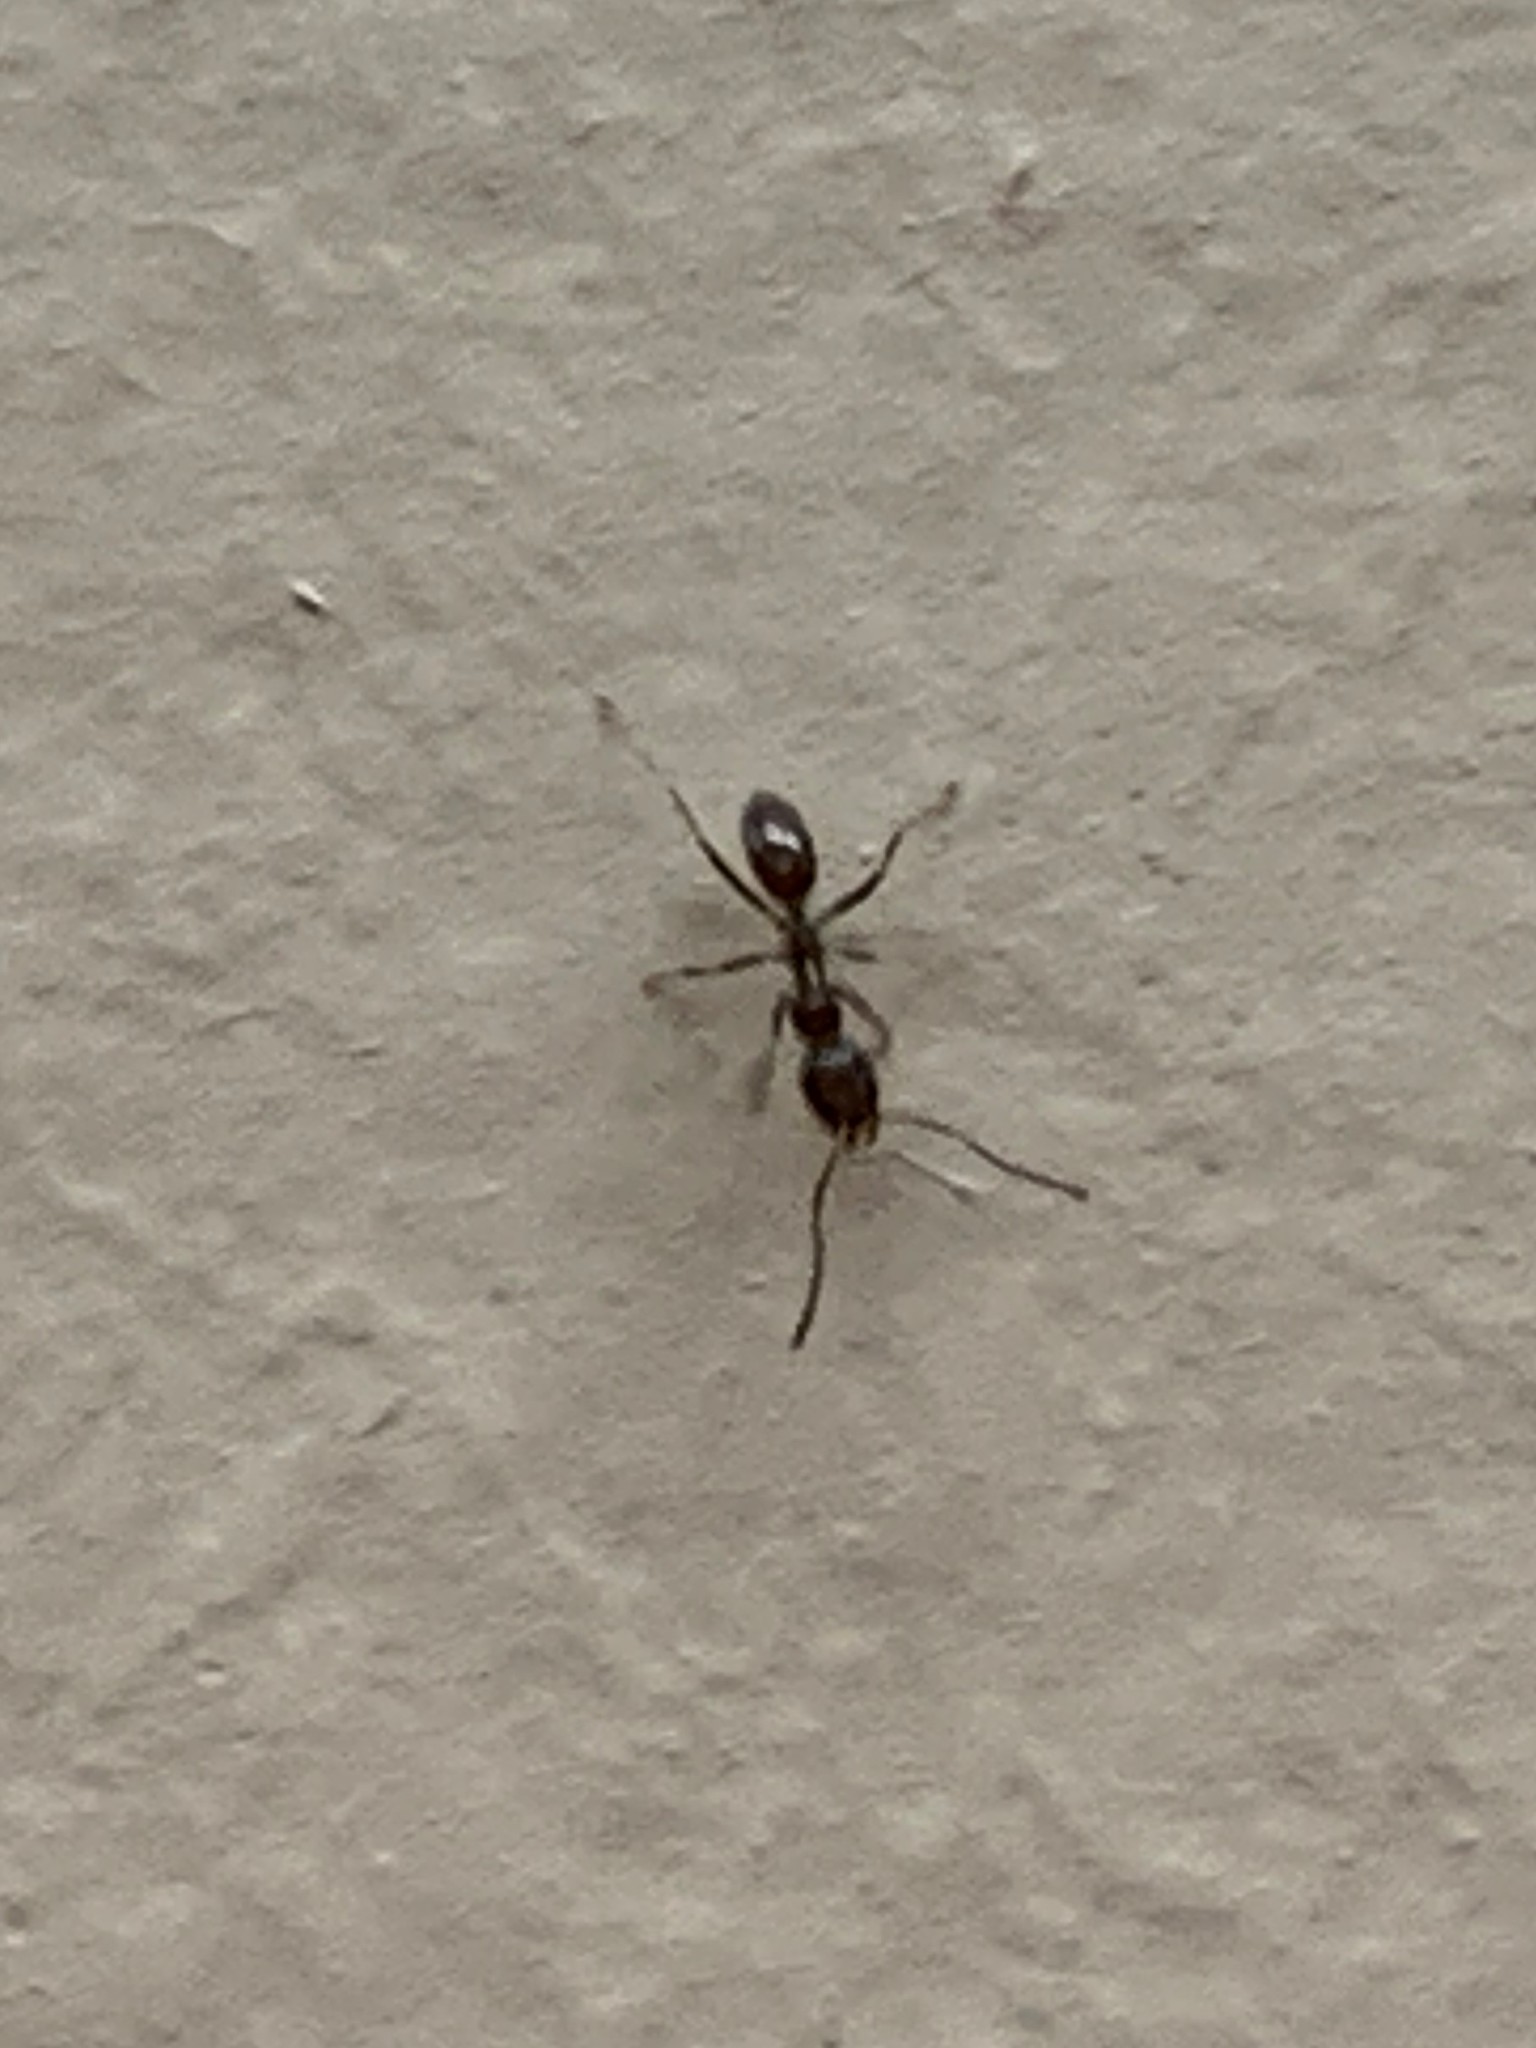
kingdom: Animalia
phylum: Arthropoda
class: Insecta
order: Hymenoptera
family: Formicidae
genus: Linepithema
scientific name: Linepithema humile
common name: Argentine ant
